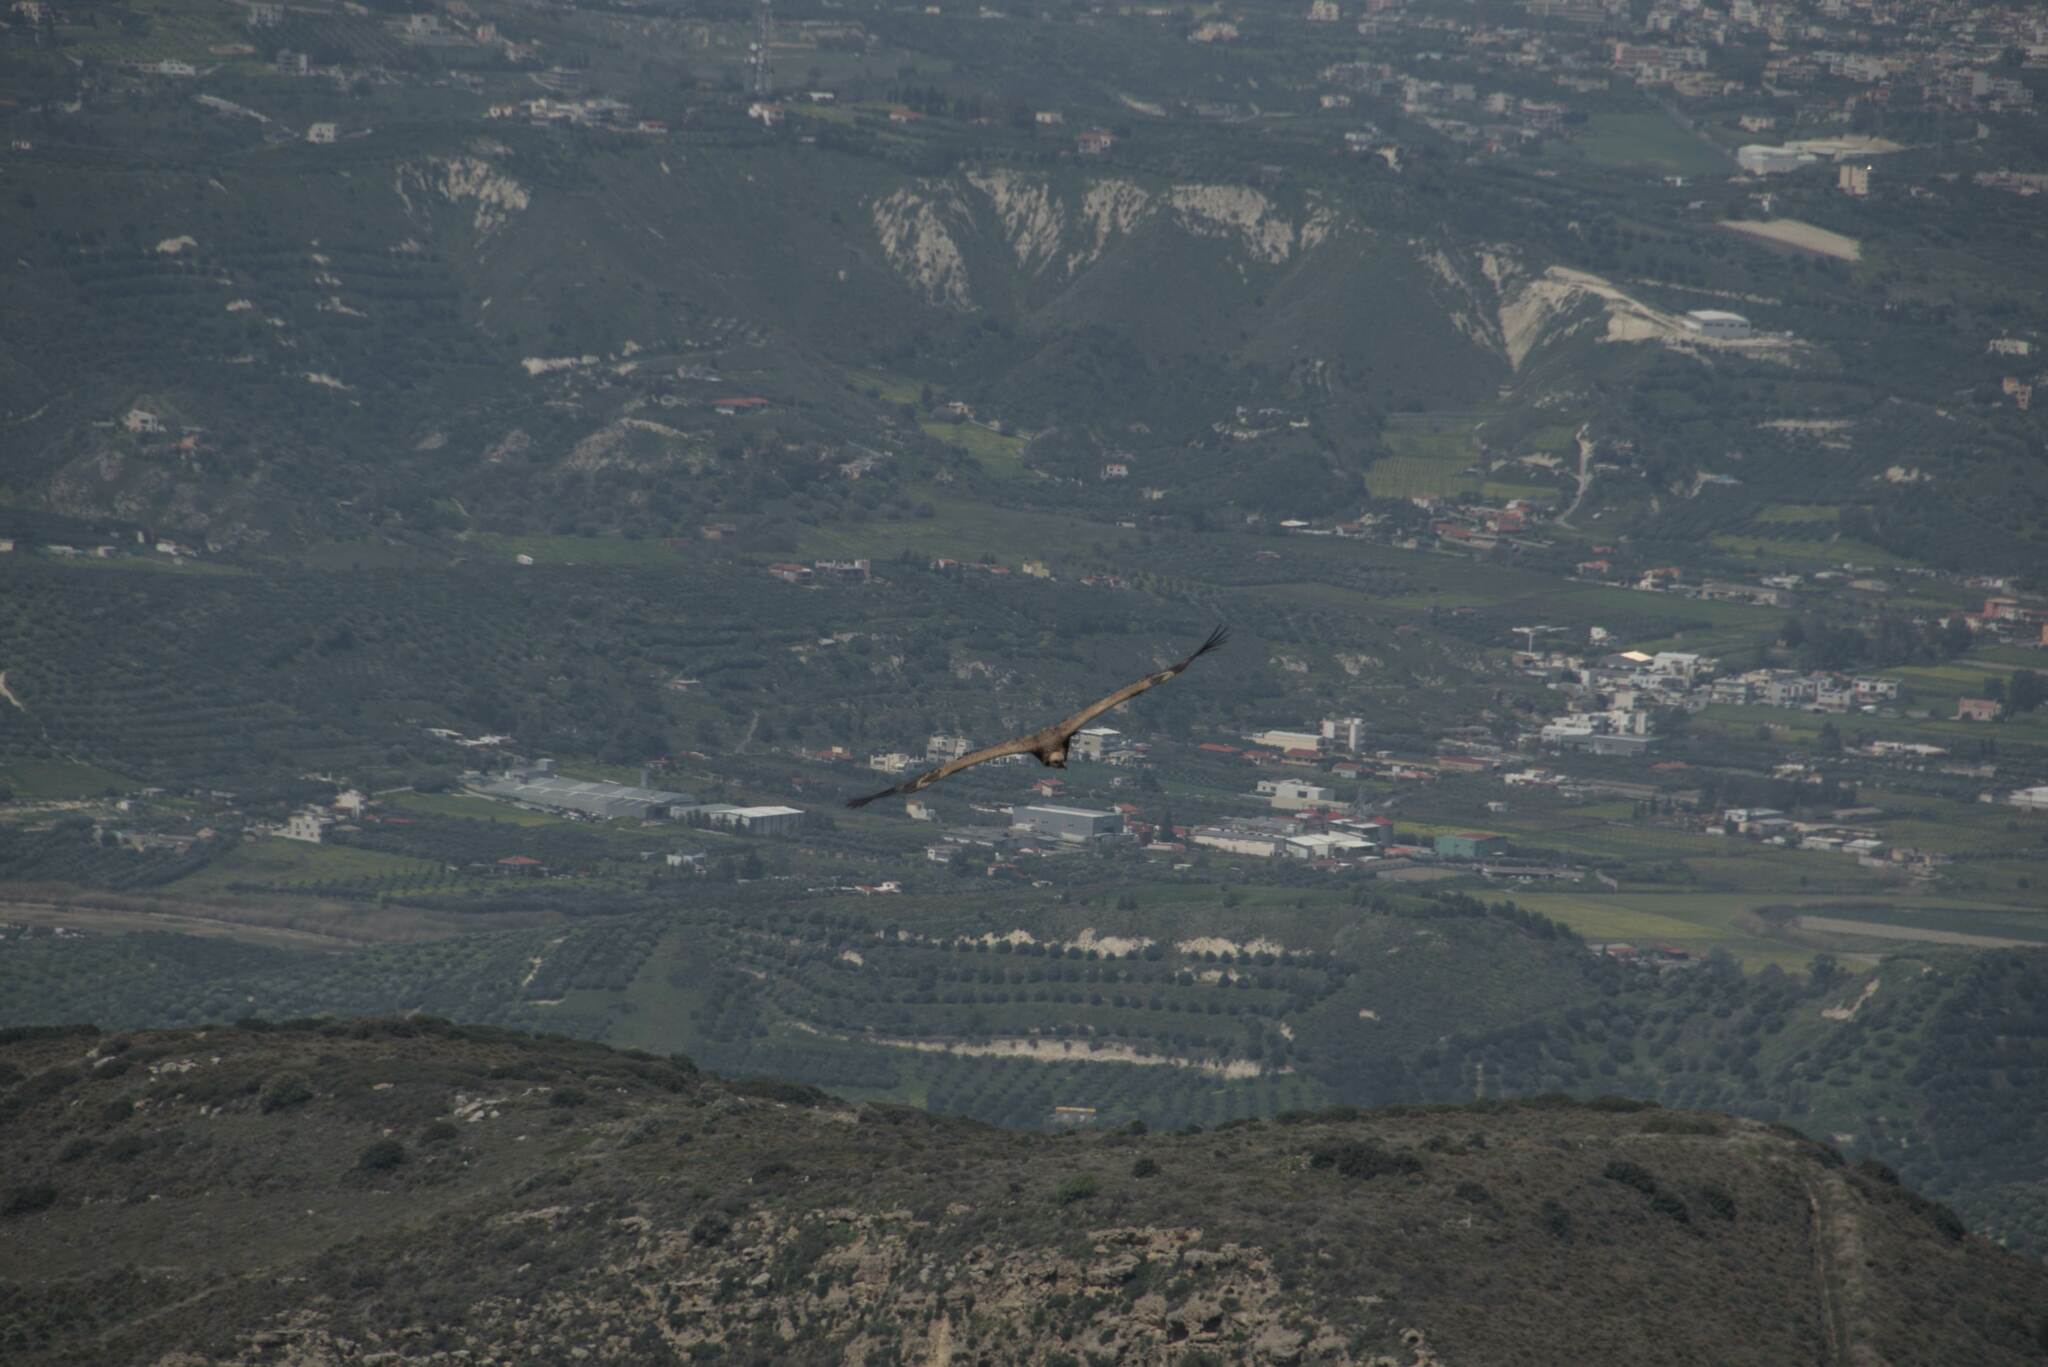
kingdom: Animalia
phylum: Chordata
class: Aves
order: Accipitriformes
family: Accipitridae
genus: Gyps
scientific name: Gyps fulvus
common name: Griffon vulture
